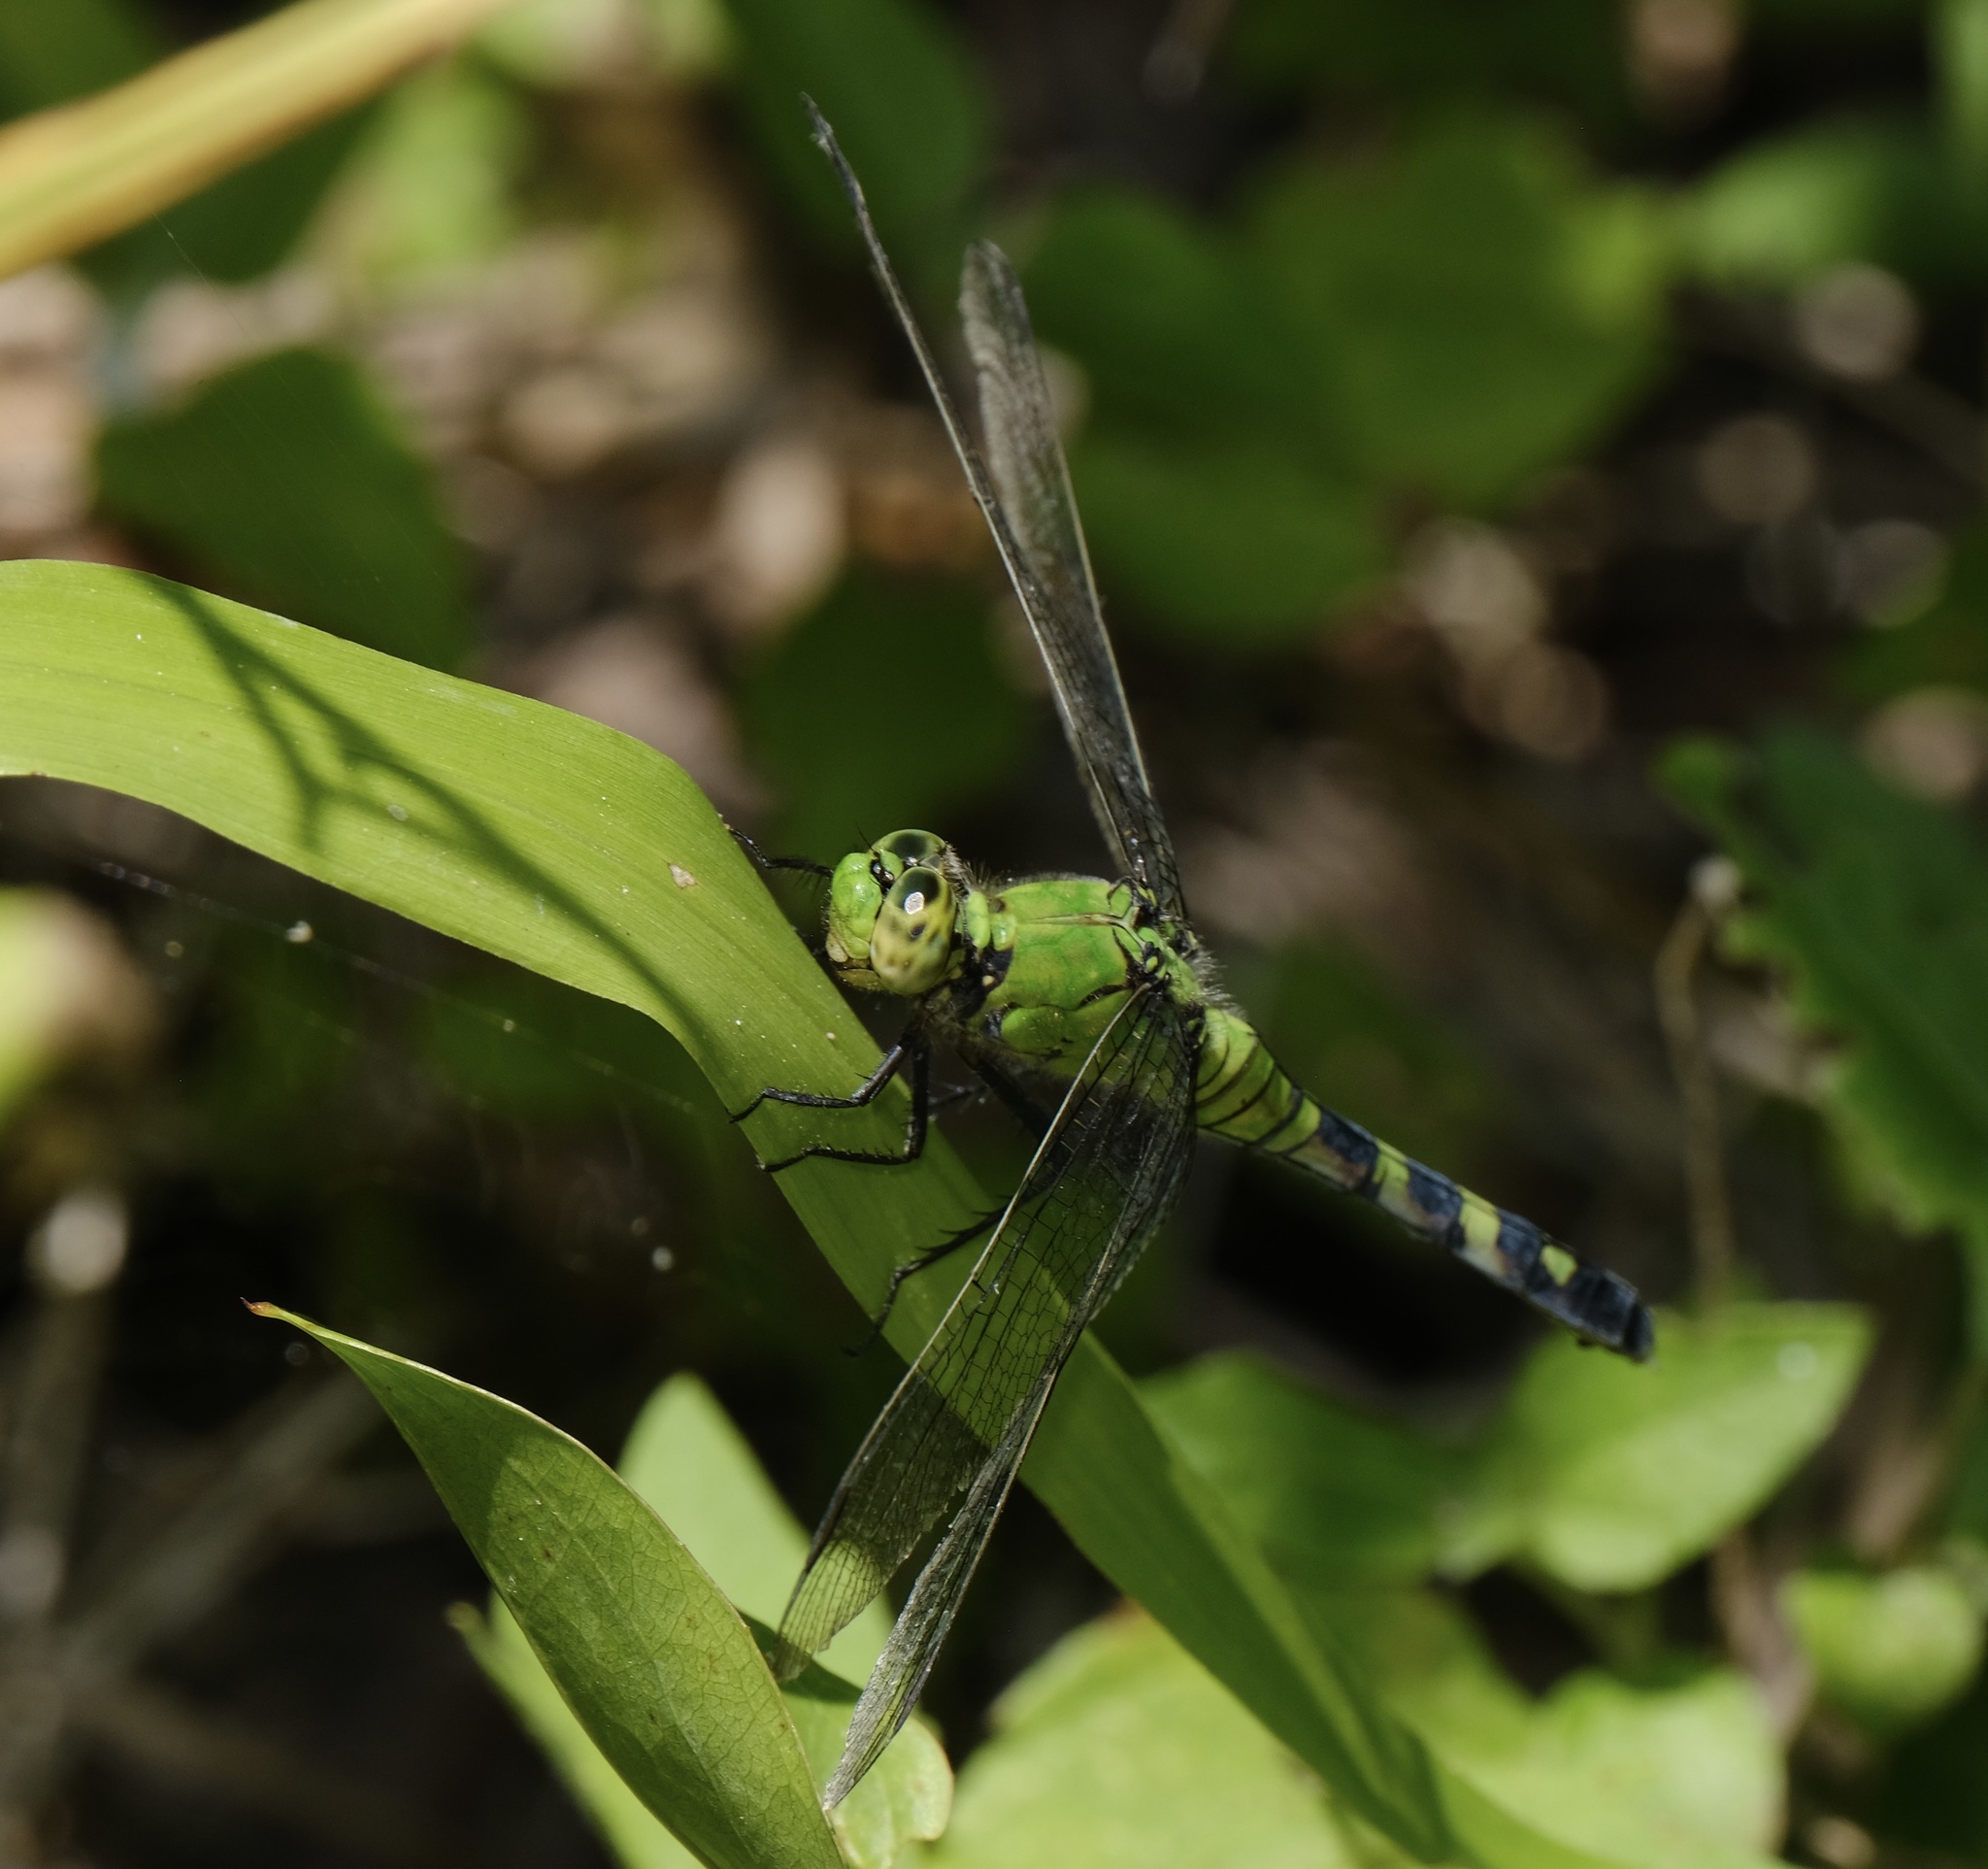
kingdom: Animalia
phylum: Arthropoda
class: Insecta
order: Odonata
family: Libellulidae
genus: Erythemis
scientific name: Erythemis simplicicollis
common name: Eastern pondhawk
